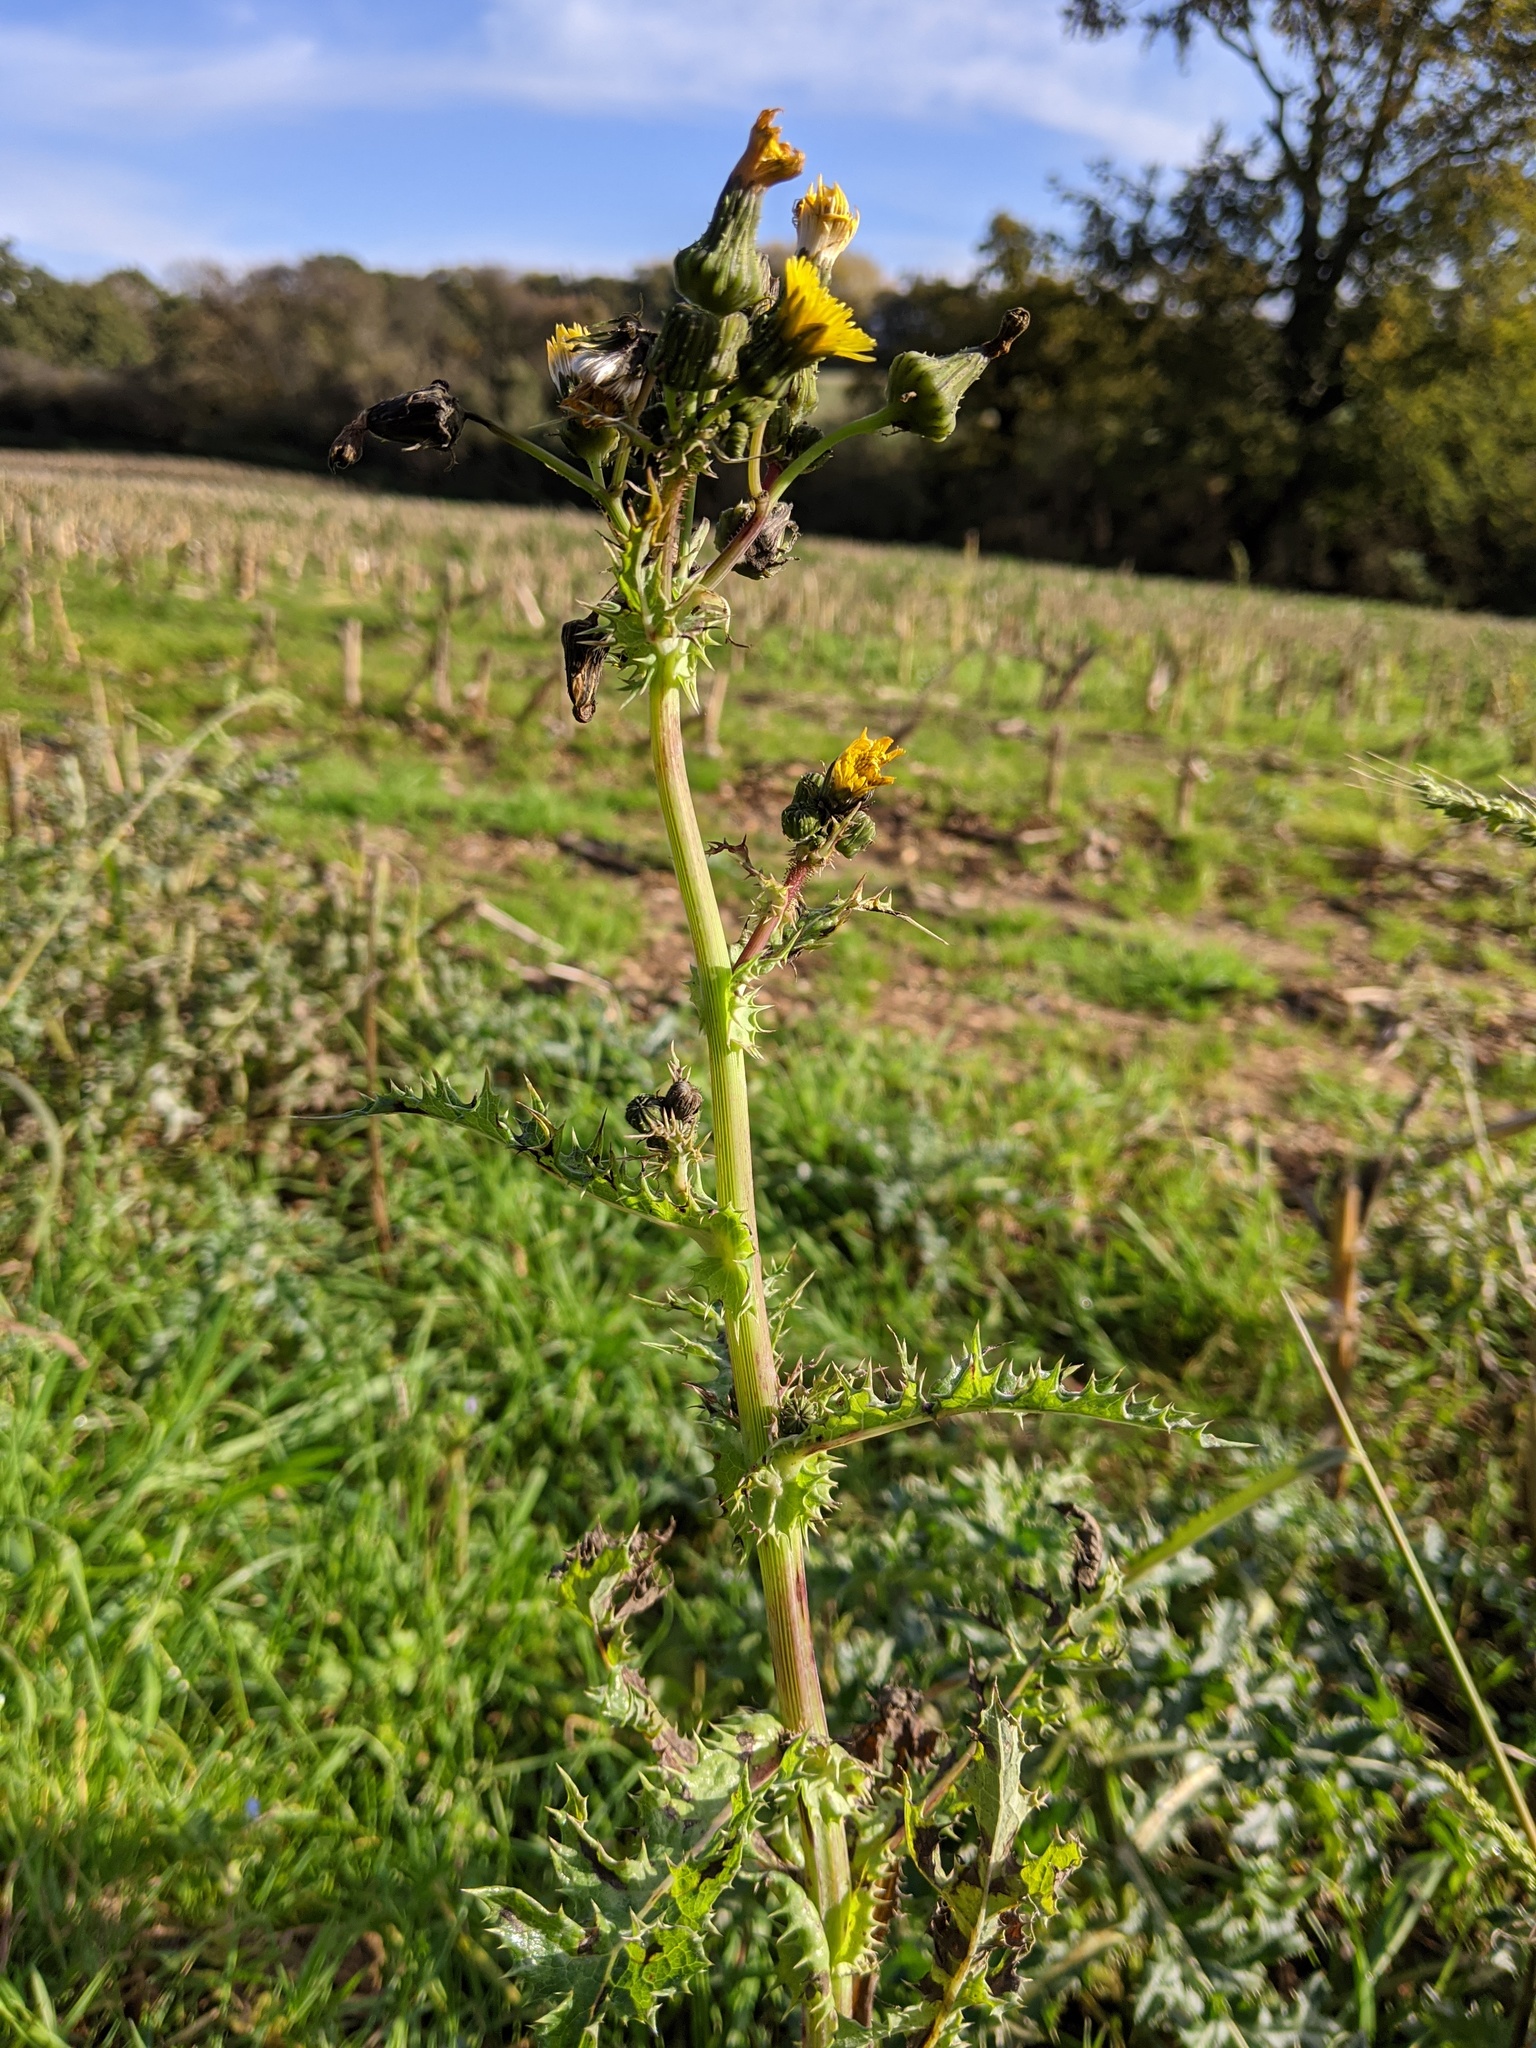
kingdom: Plantae
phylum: Tracheophyta
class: Magnoliopsida
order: Asterales
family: Asteraceae
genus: Sonchus
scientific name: Sonchus asper
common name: Prickly sow-thistle
